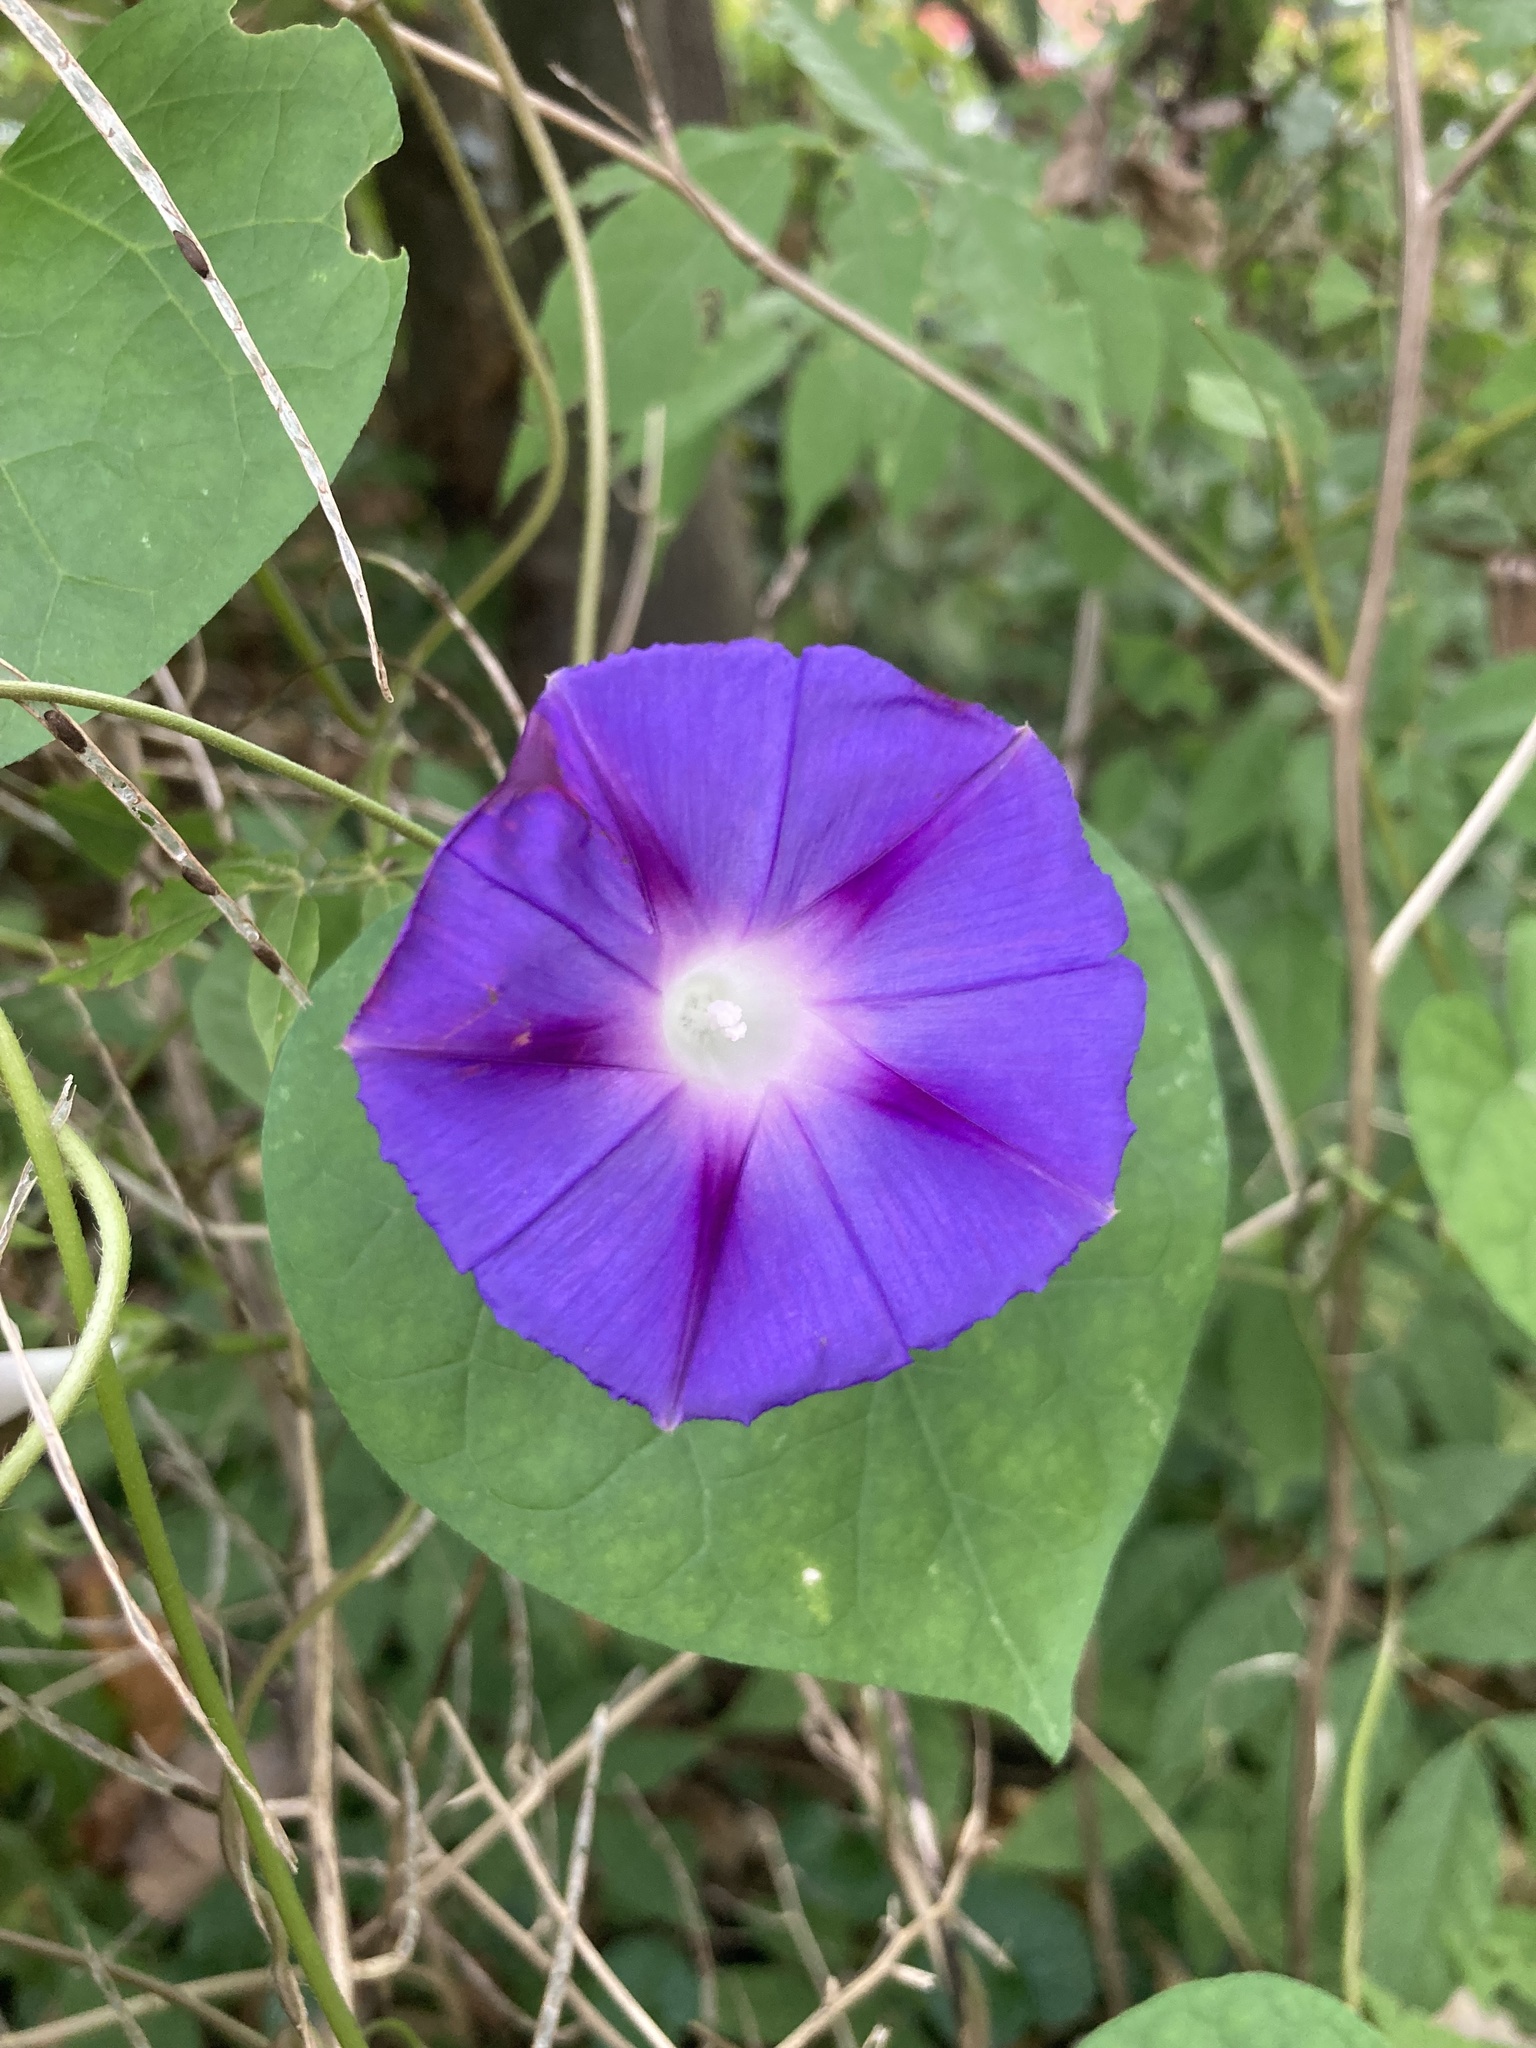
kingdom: Plantae
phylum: Tracheophyta
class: Magnoliopsida
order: Solanales
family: Convolvulaceae
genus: Ipomoea
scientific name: Ipomoea purpurea
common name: Common morning-glory
